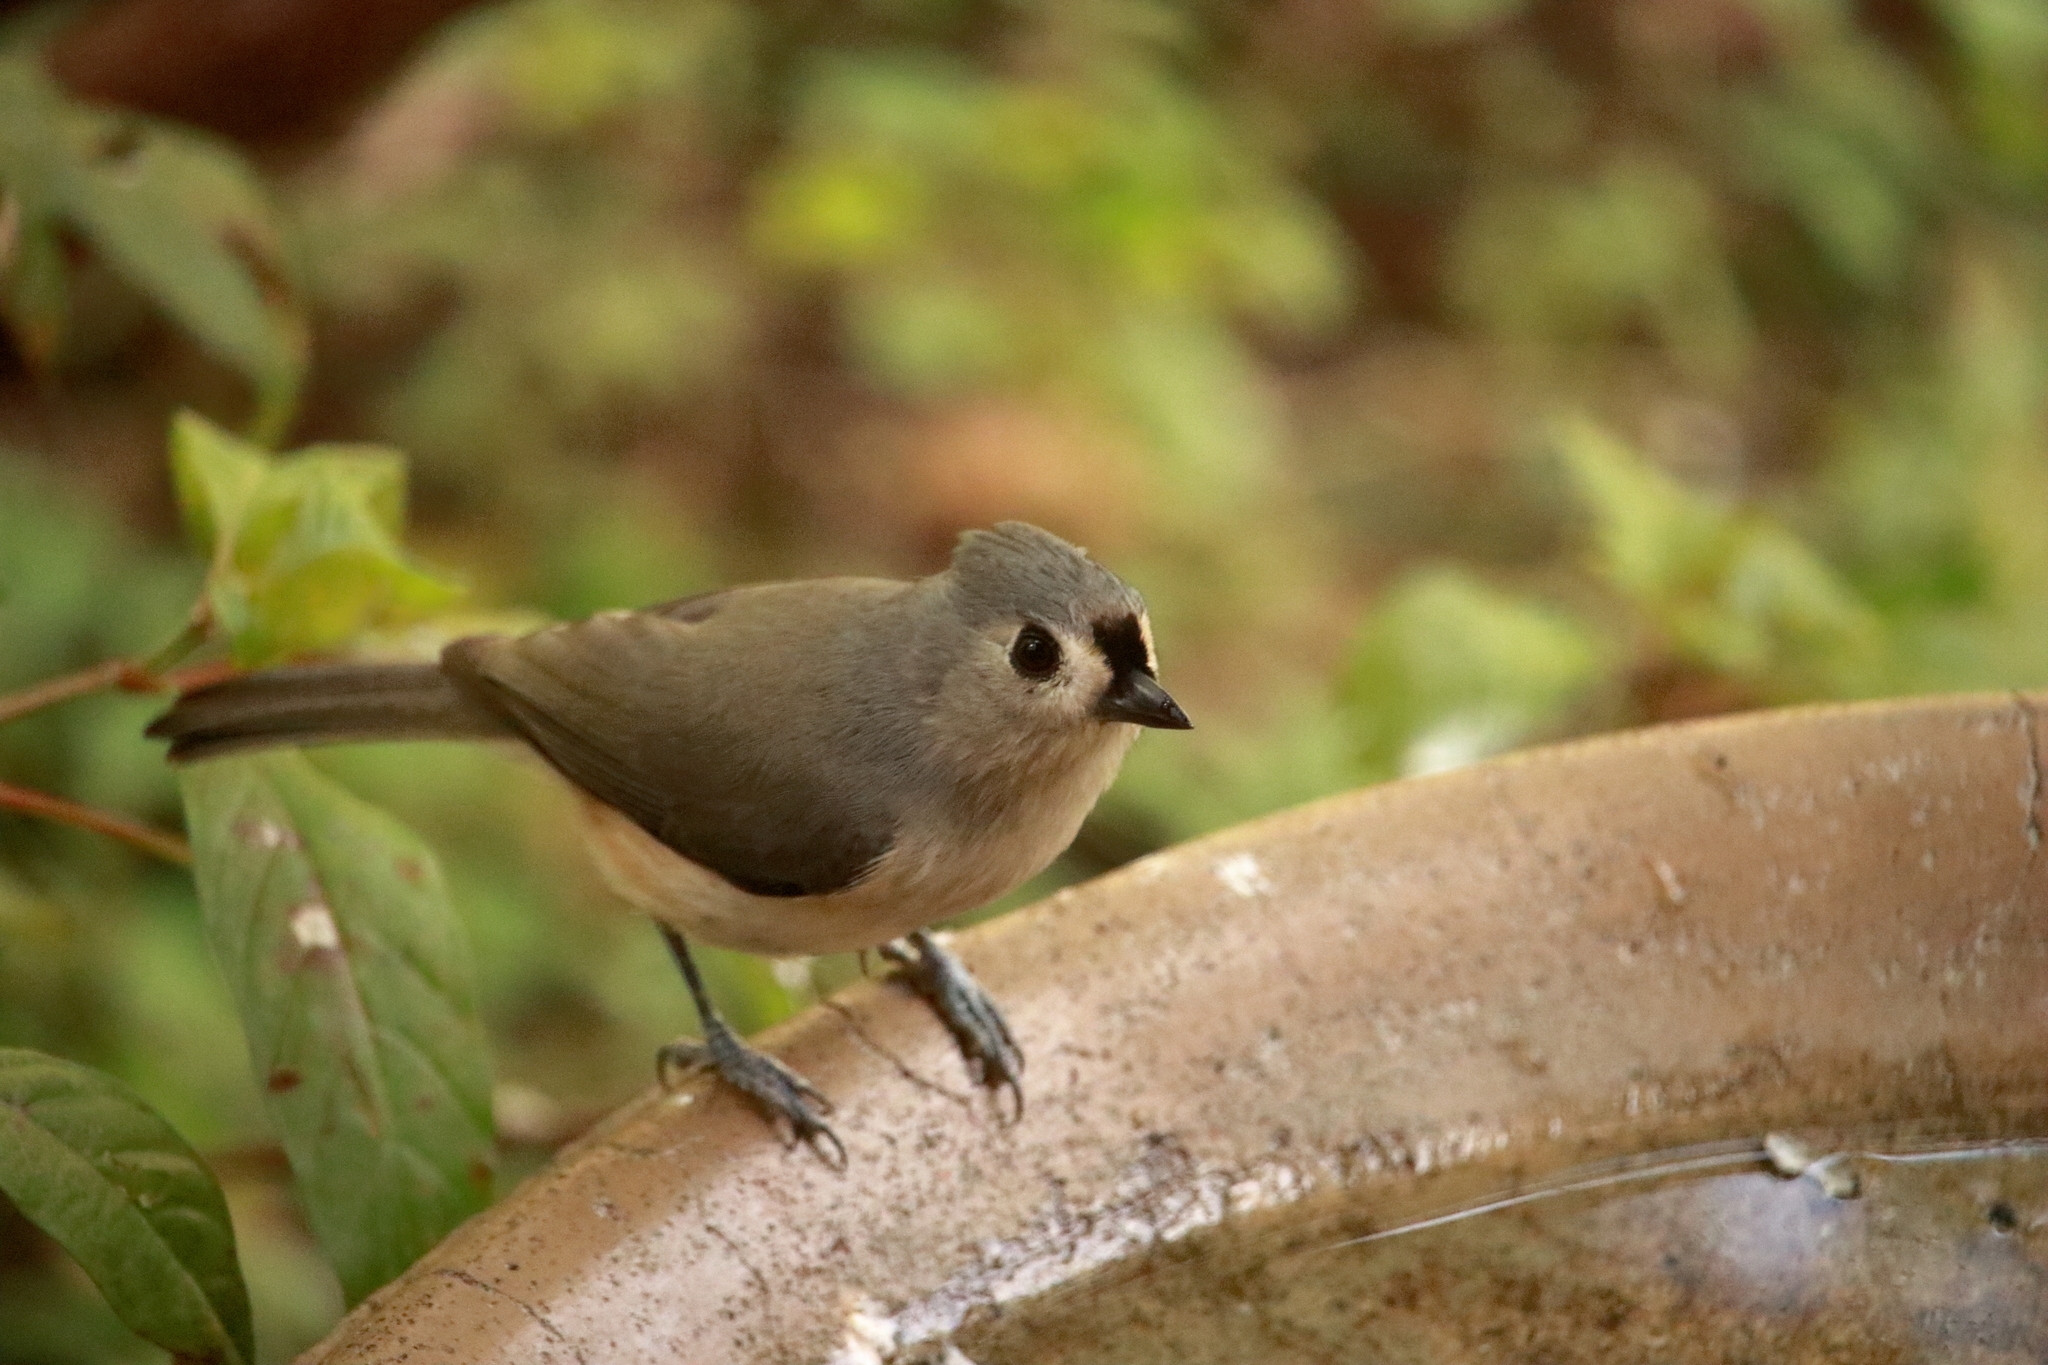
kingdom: Animalia
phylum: Chordata
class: Aves
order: Passeriformes
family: Paridae
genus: Baeolophus
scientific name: Baeolophus bicolor
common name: Tufted titmouse
